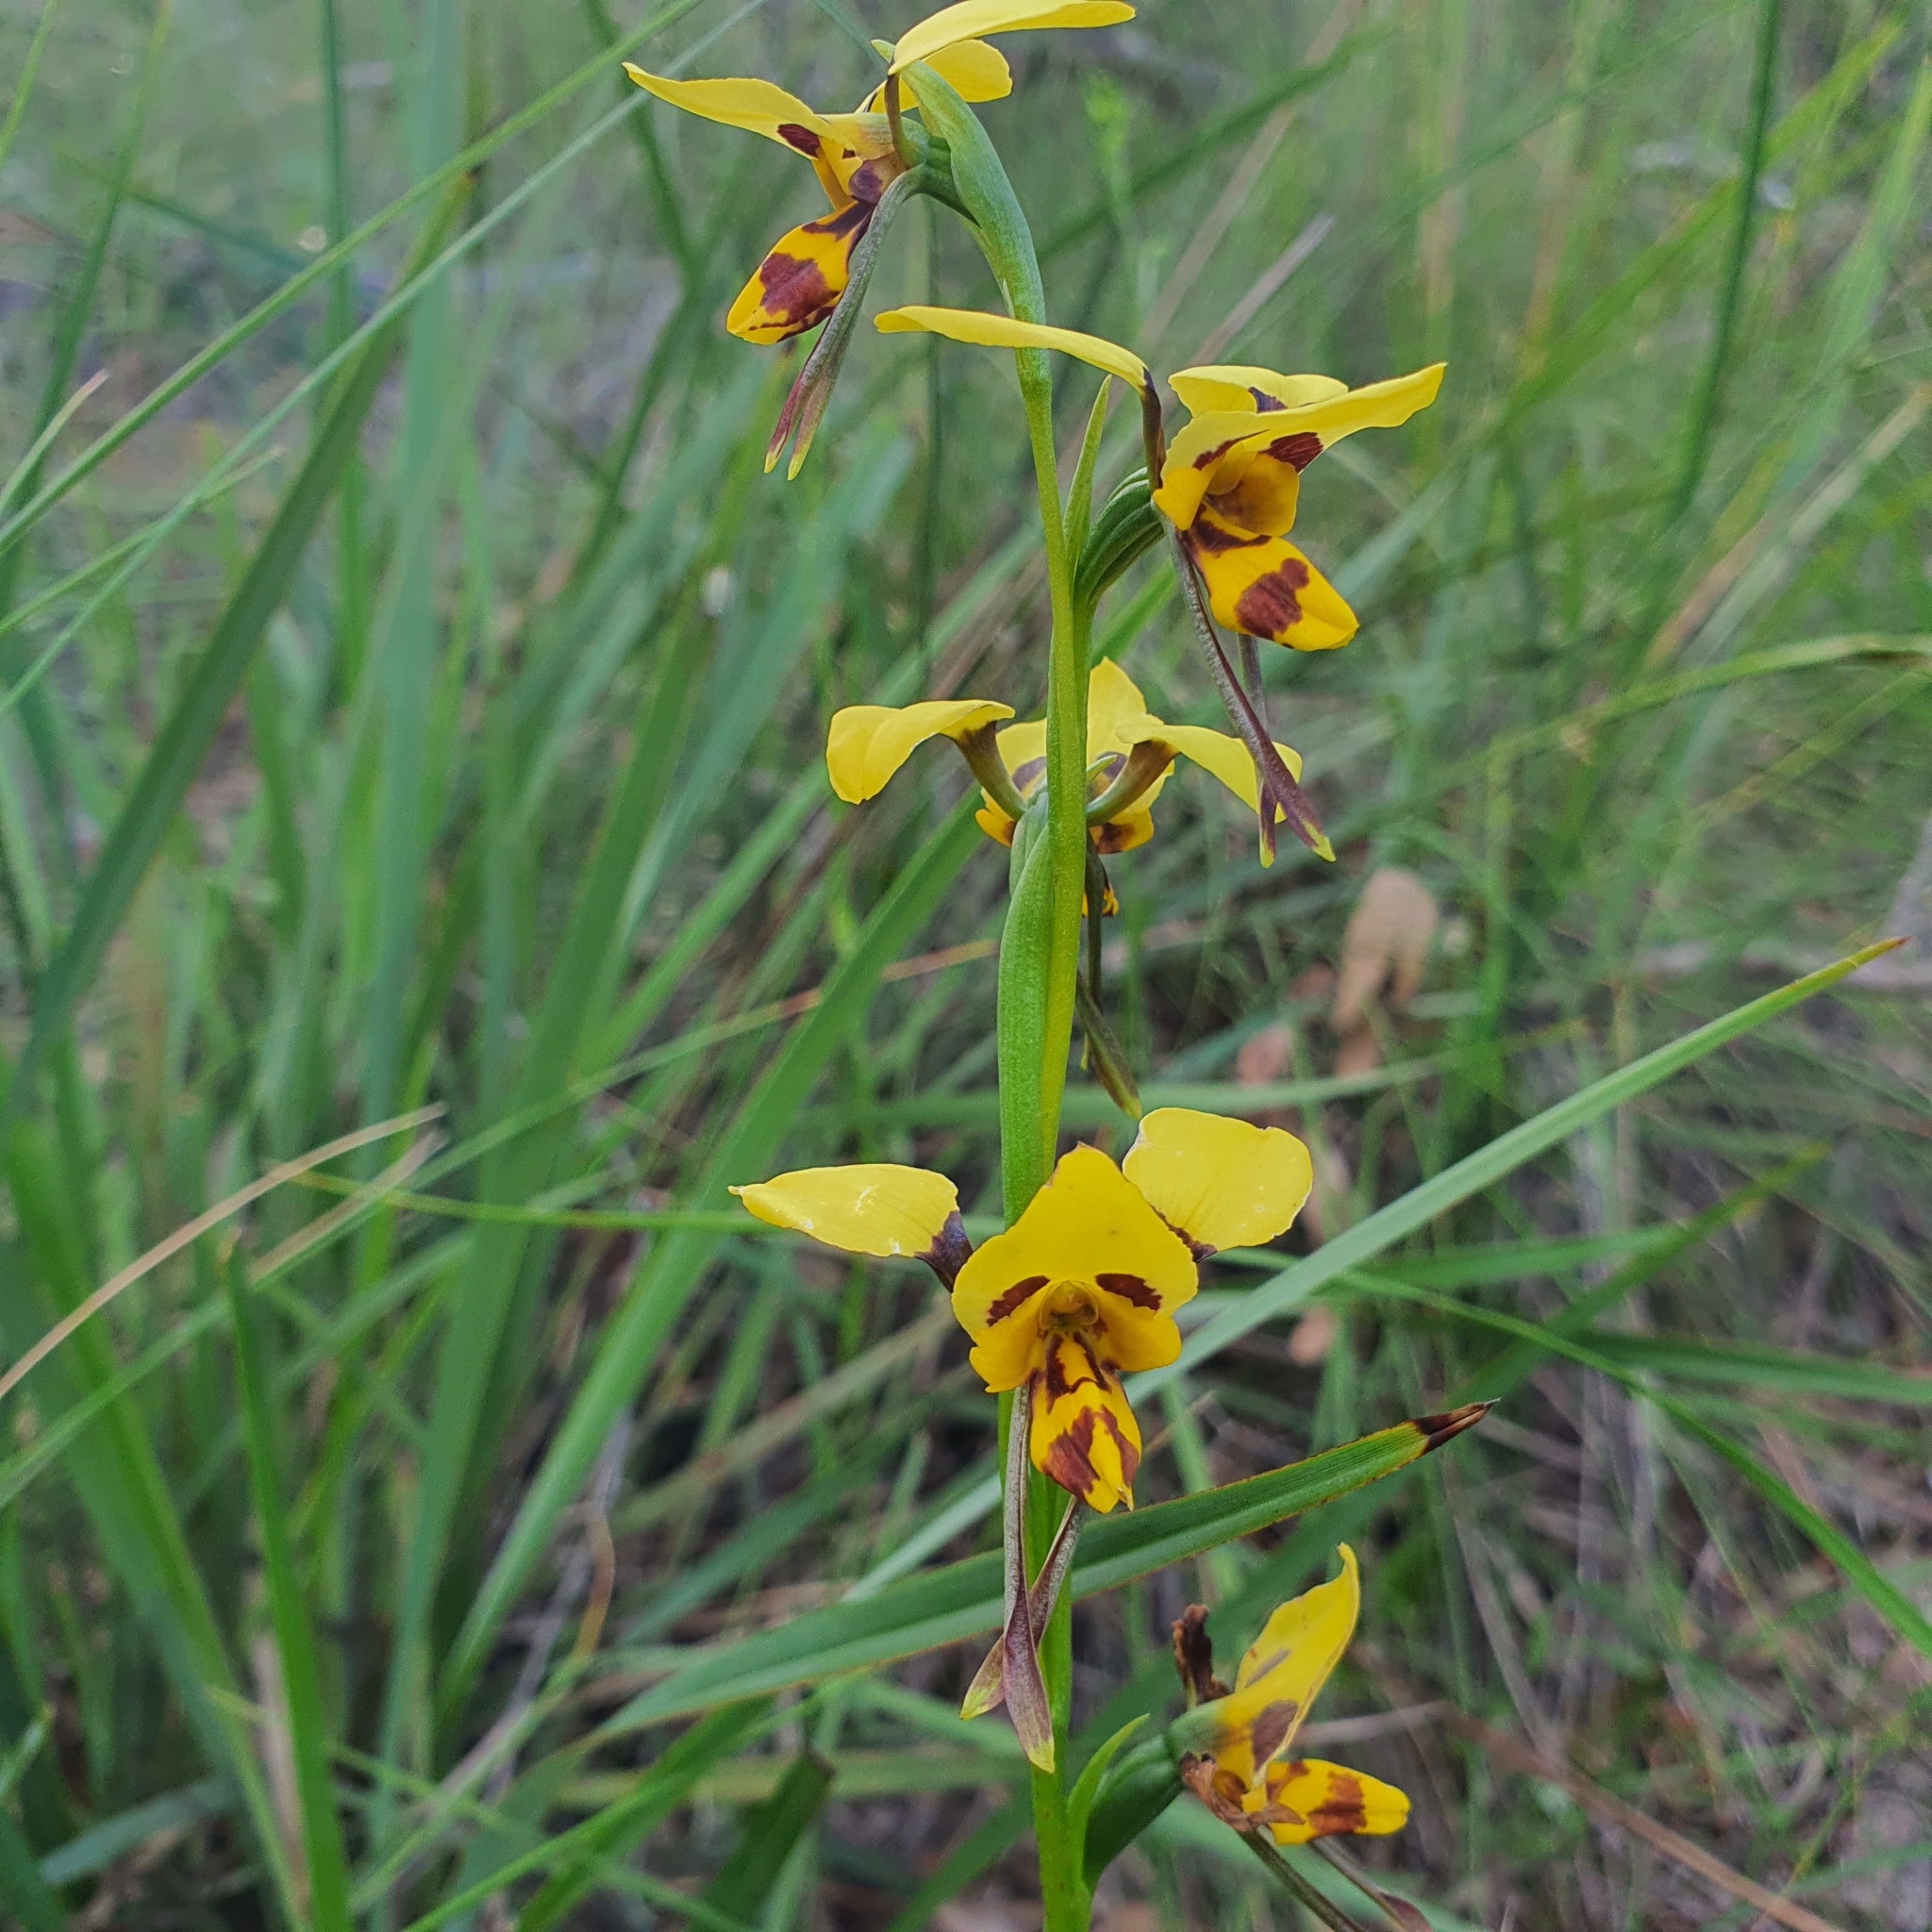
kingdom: Plantae
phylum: Tracheophyta
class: Liliopsida
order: Asparagales
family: Orchidaceae
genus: Diuris
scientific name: Diuris sulphurea
